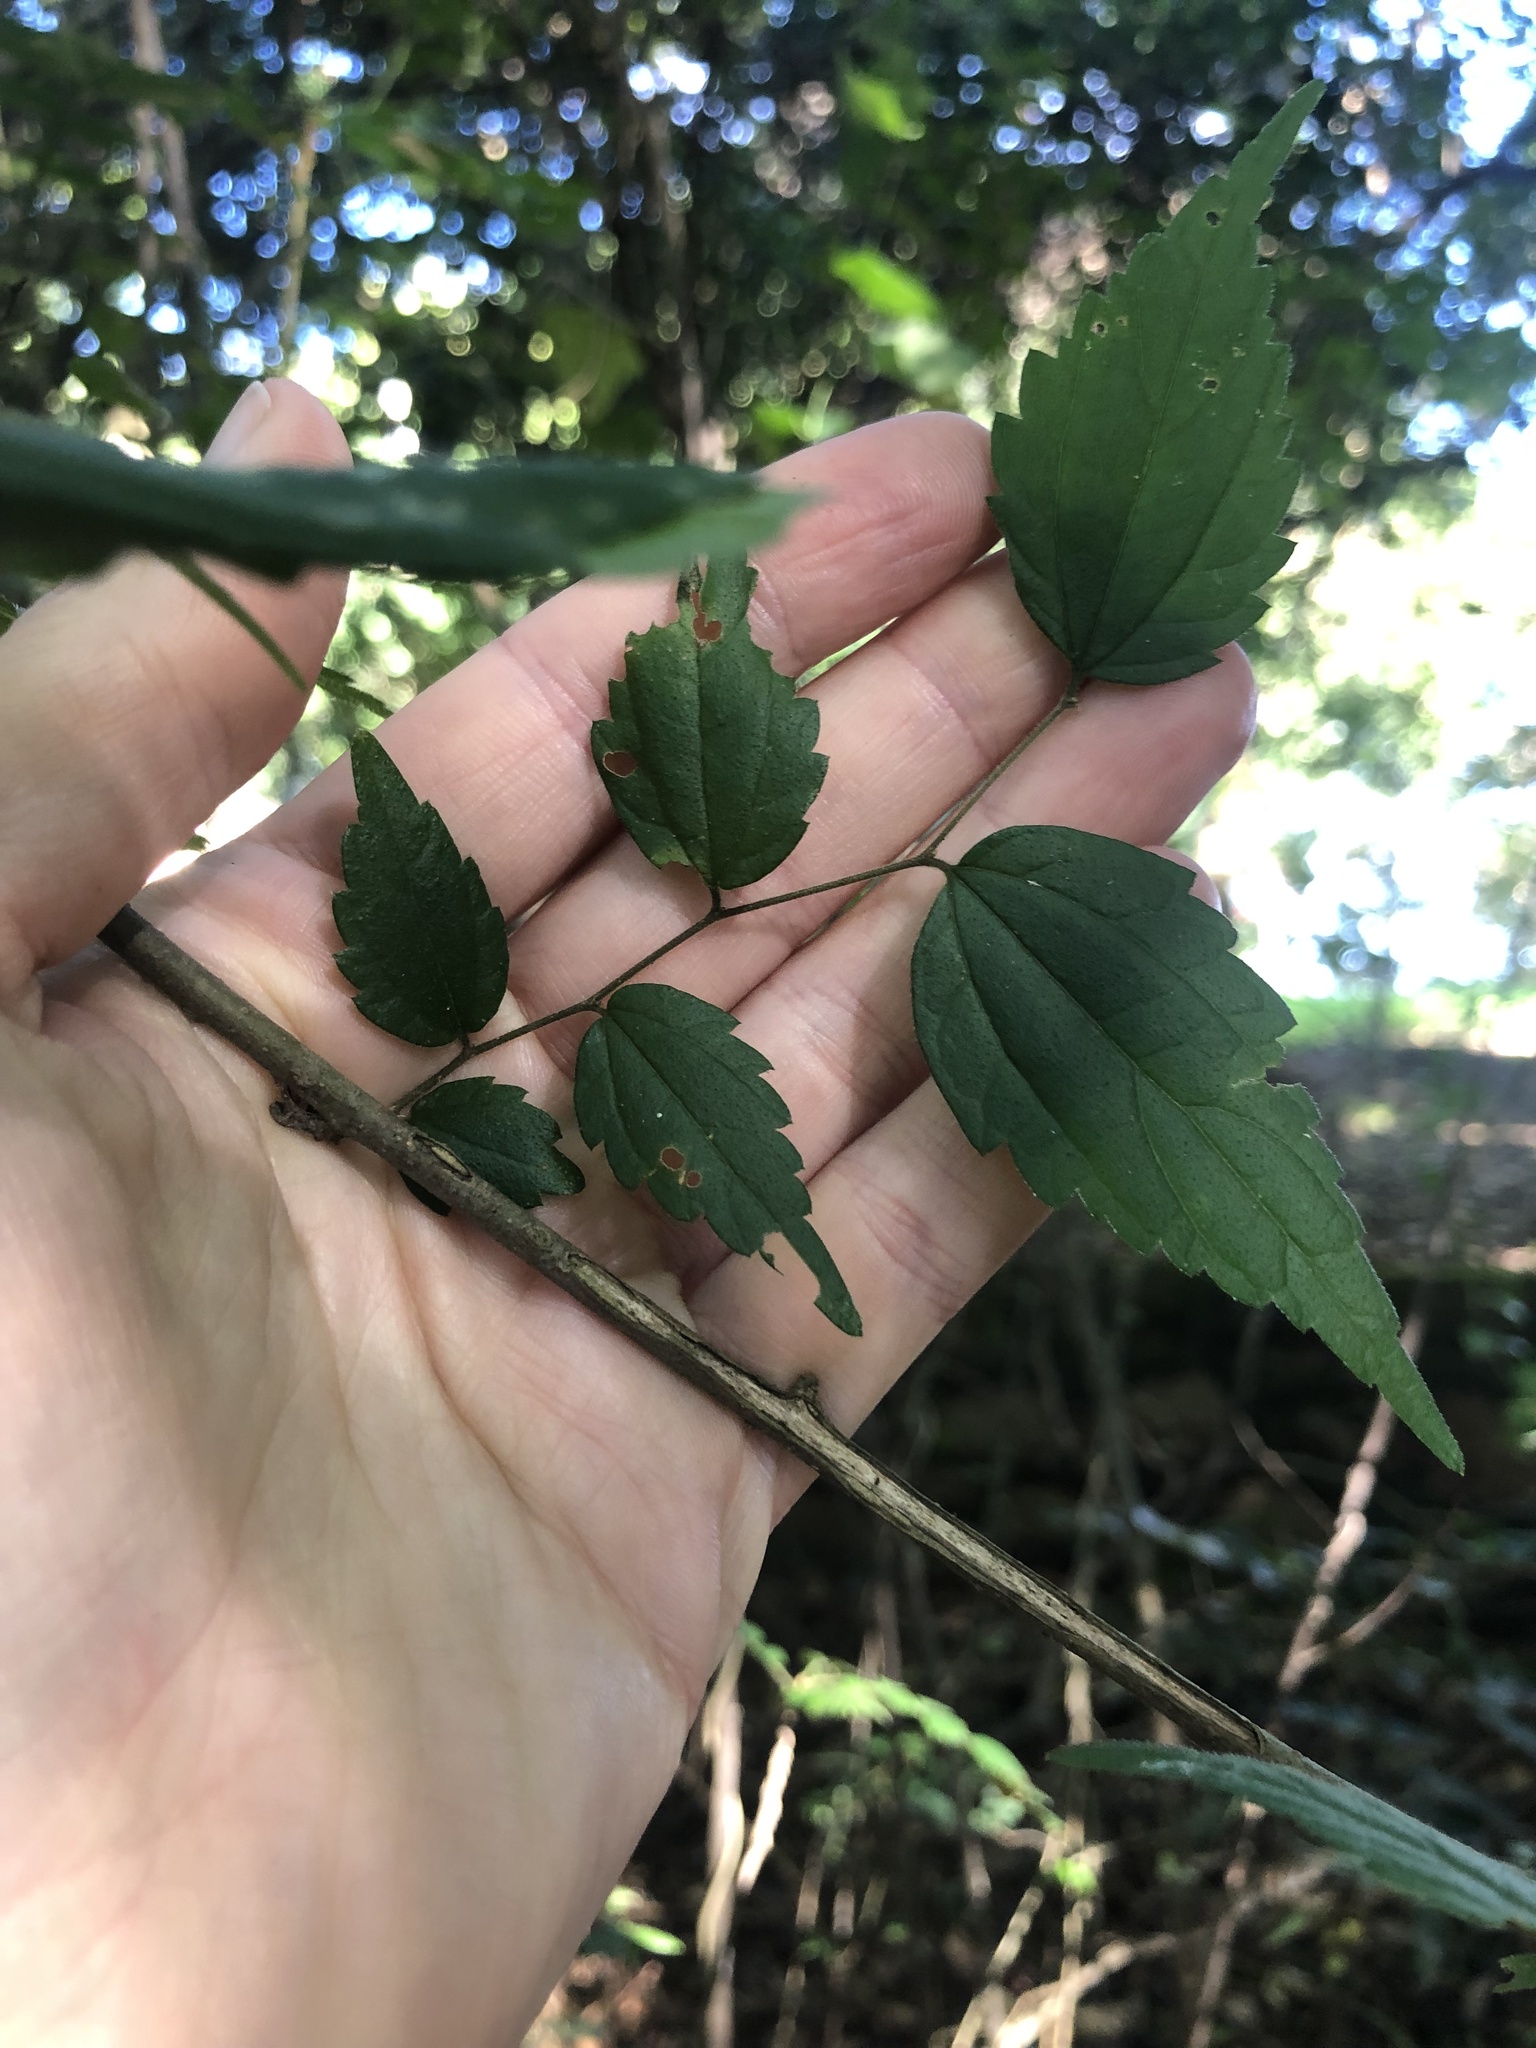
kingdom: Plantae
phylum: Tracheophyta
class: Magnoliopsida
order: Rosales
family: Cannabaceae
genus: Celtis
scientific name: Celtis africana
